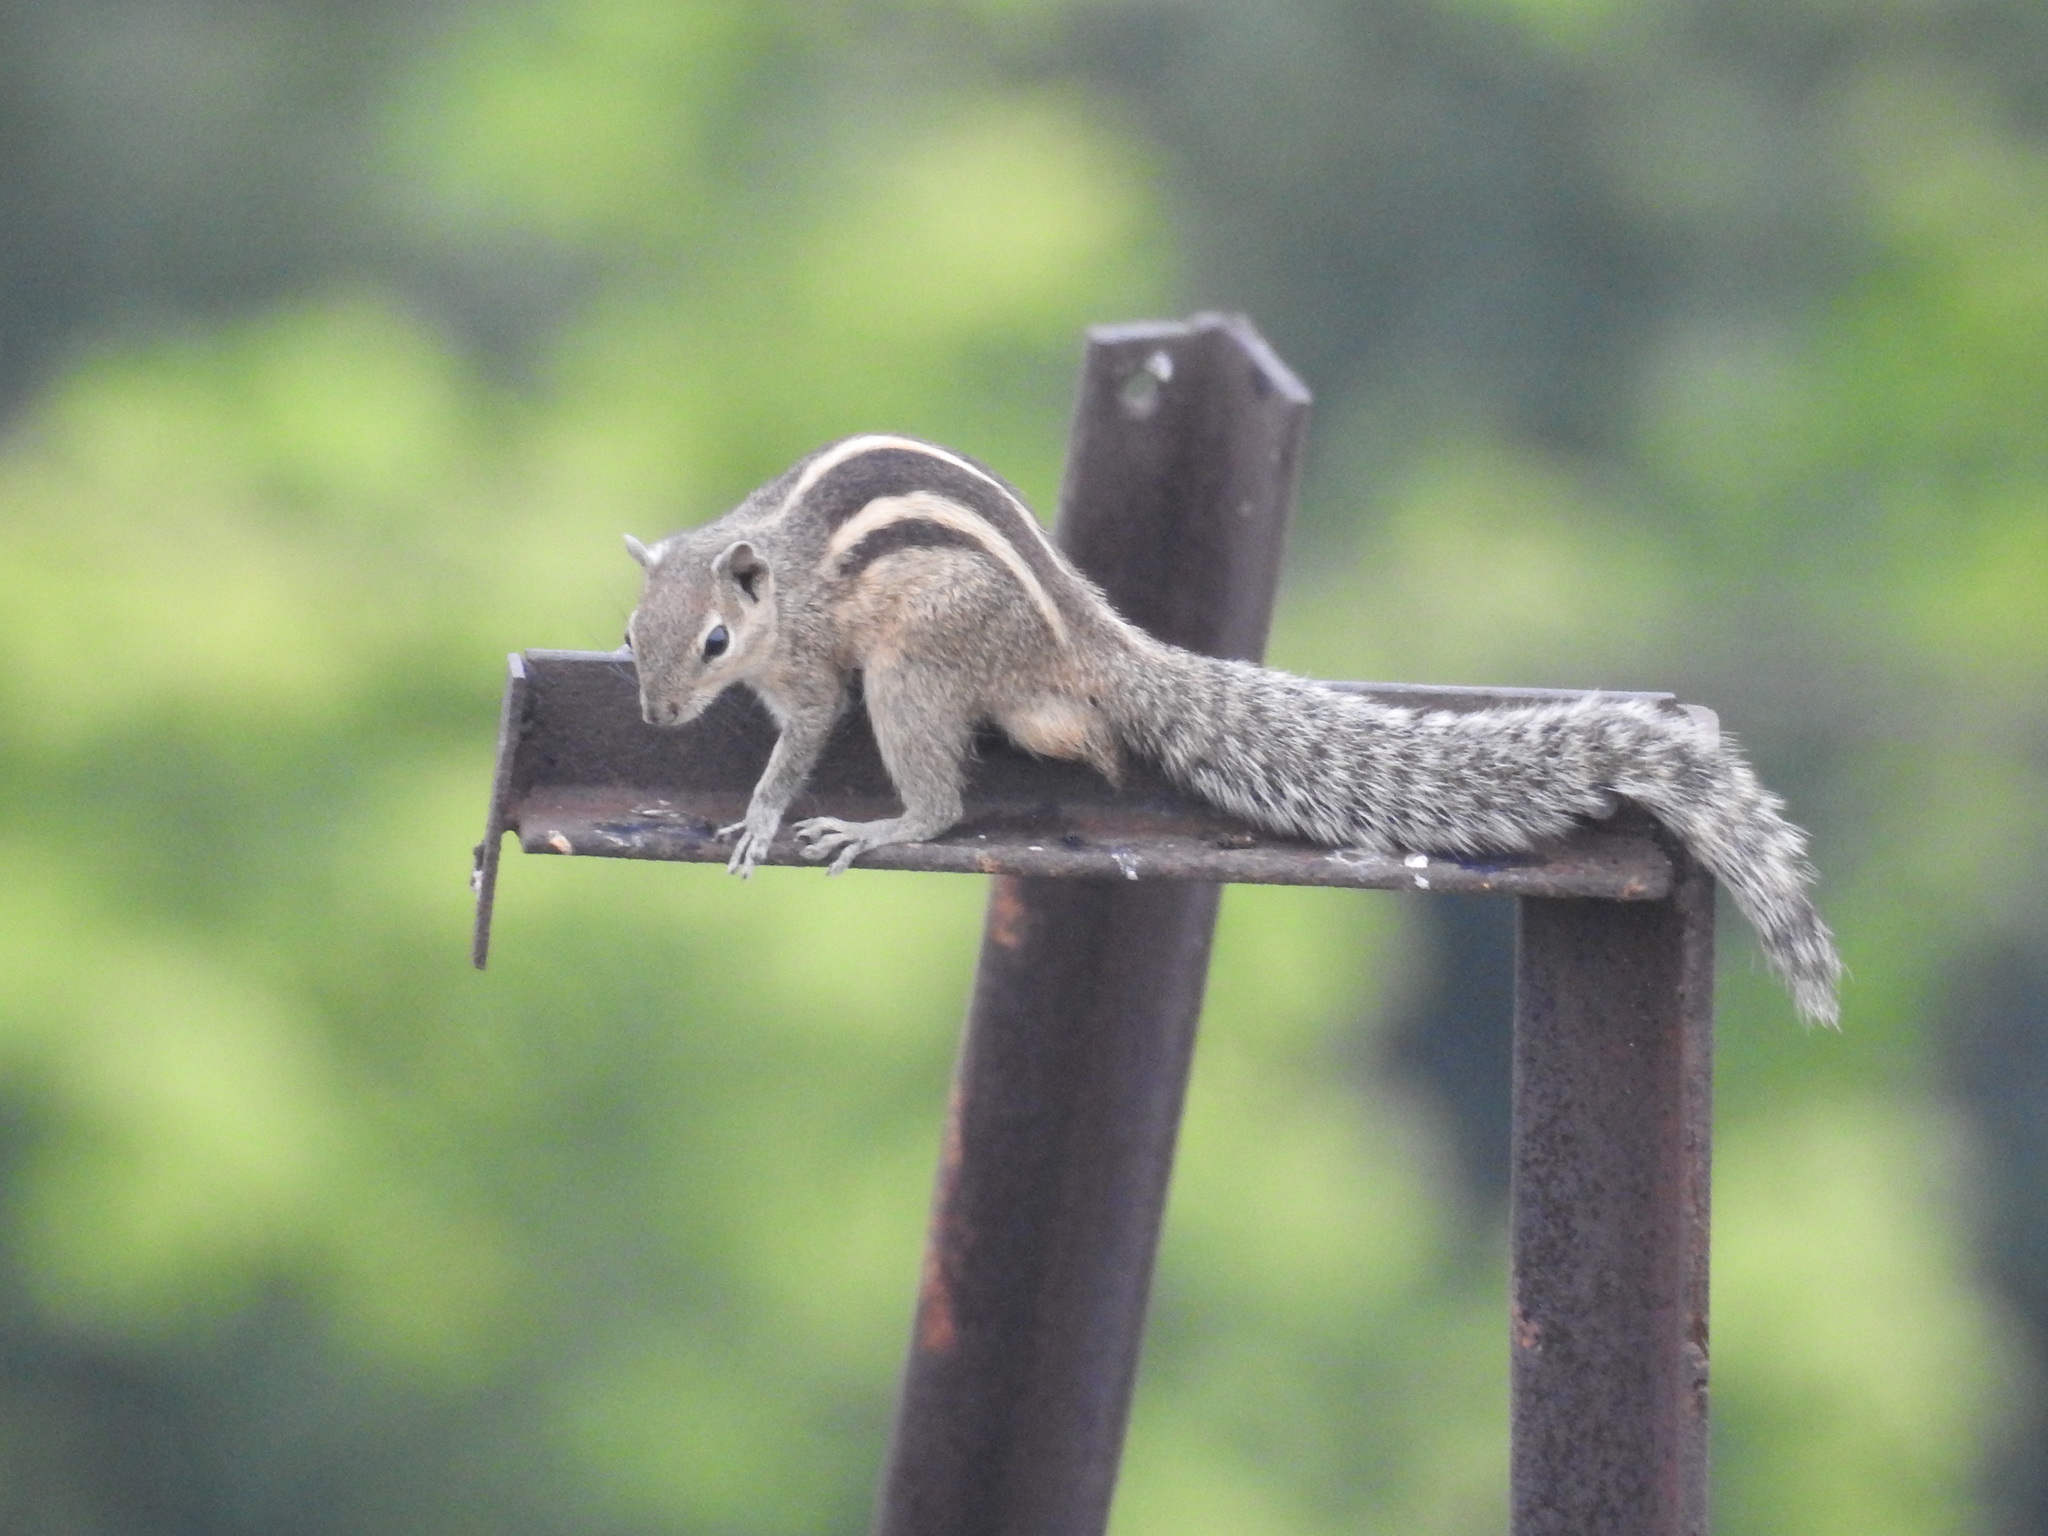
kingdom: Animalia
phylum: Chordata
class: Mammalia
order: Rodentia
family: Sciuridae
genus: Funambulus
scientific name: Funambulus palmarum
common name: Indian palm squirrel
